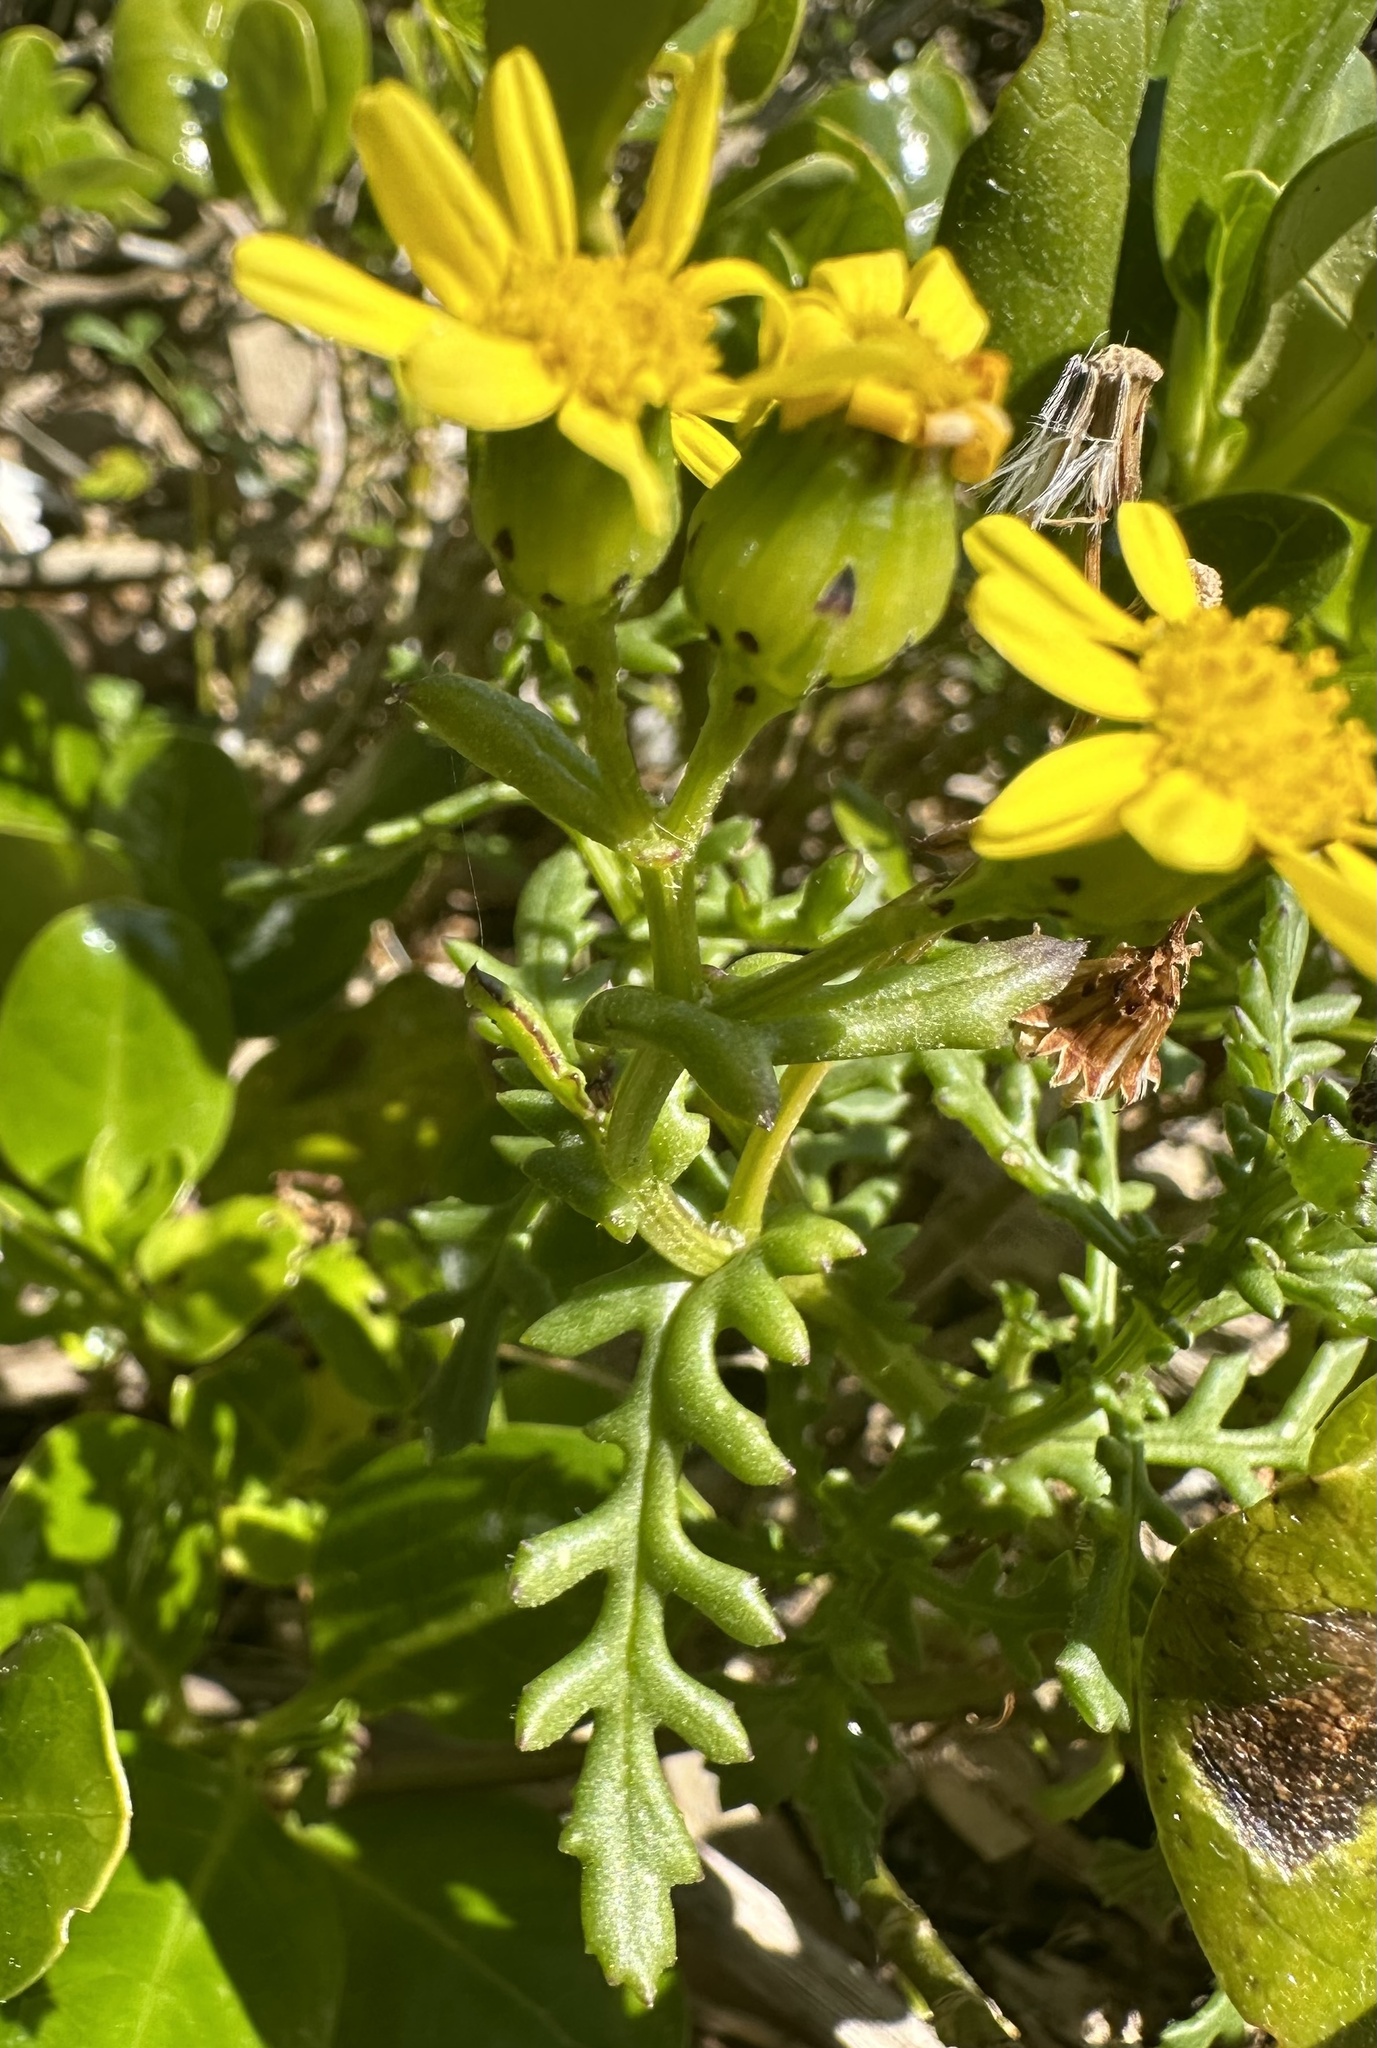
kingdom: Plantae
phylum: Tracheophyta
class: Magnoliopsida
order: Asterales
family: Asteraceae
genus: Senecio
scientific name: Senecio lautus
